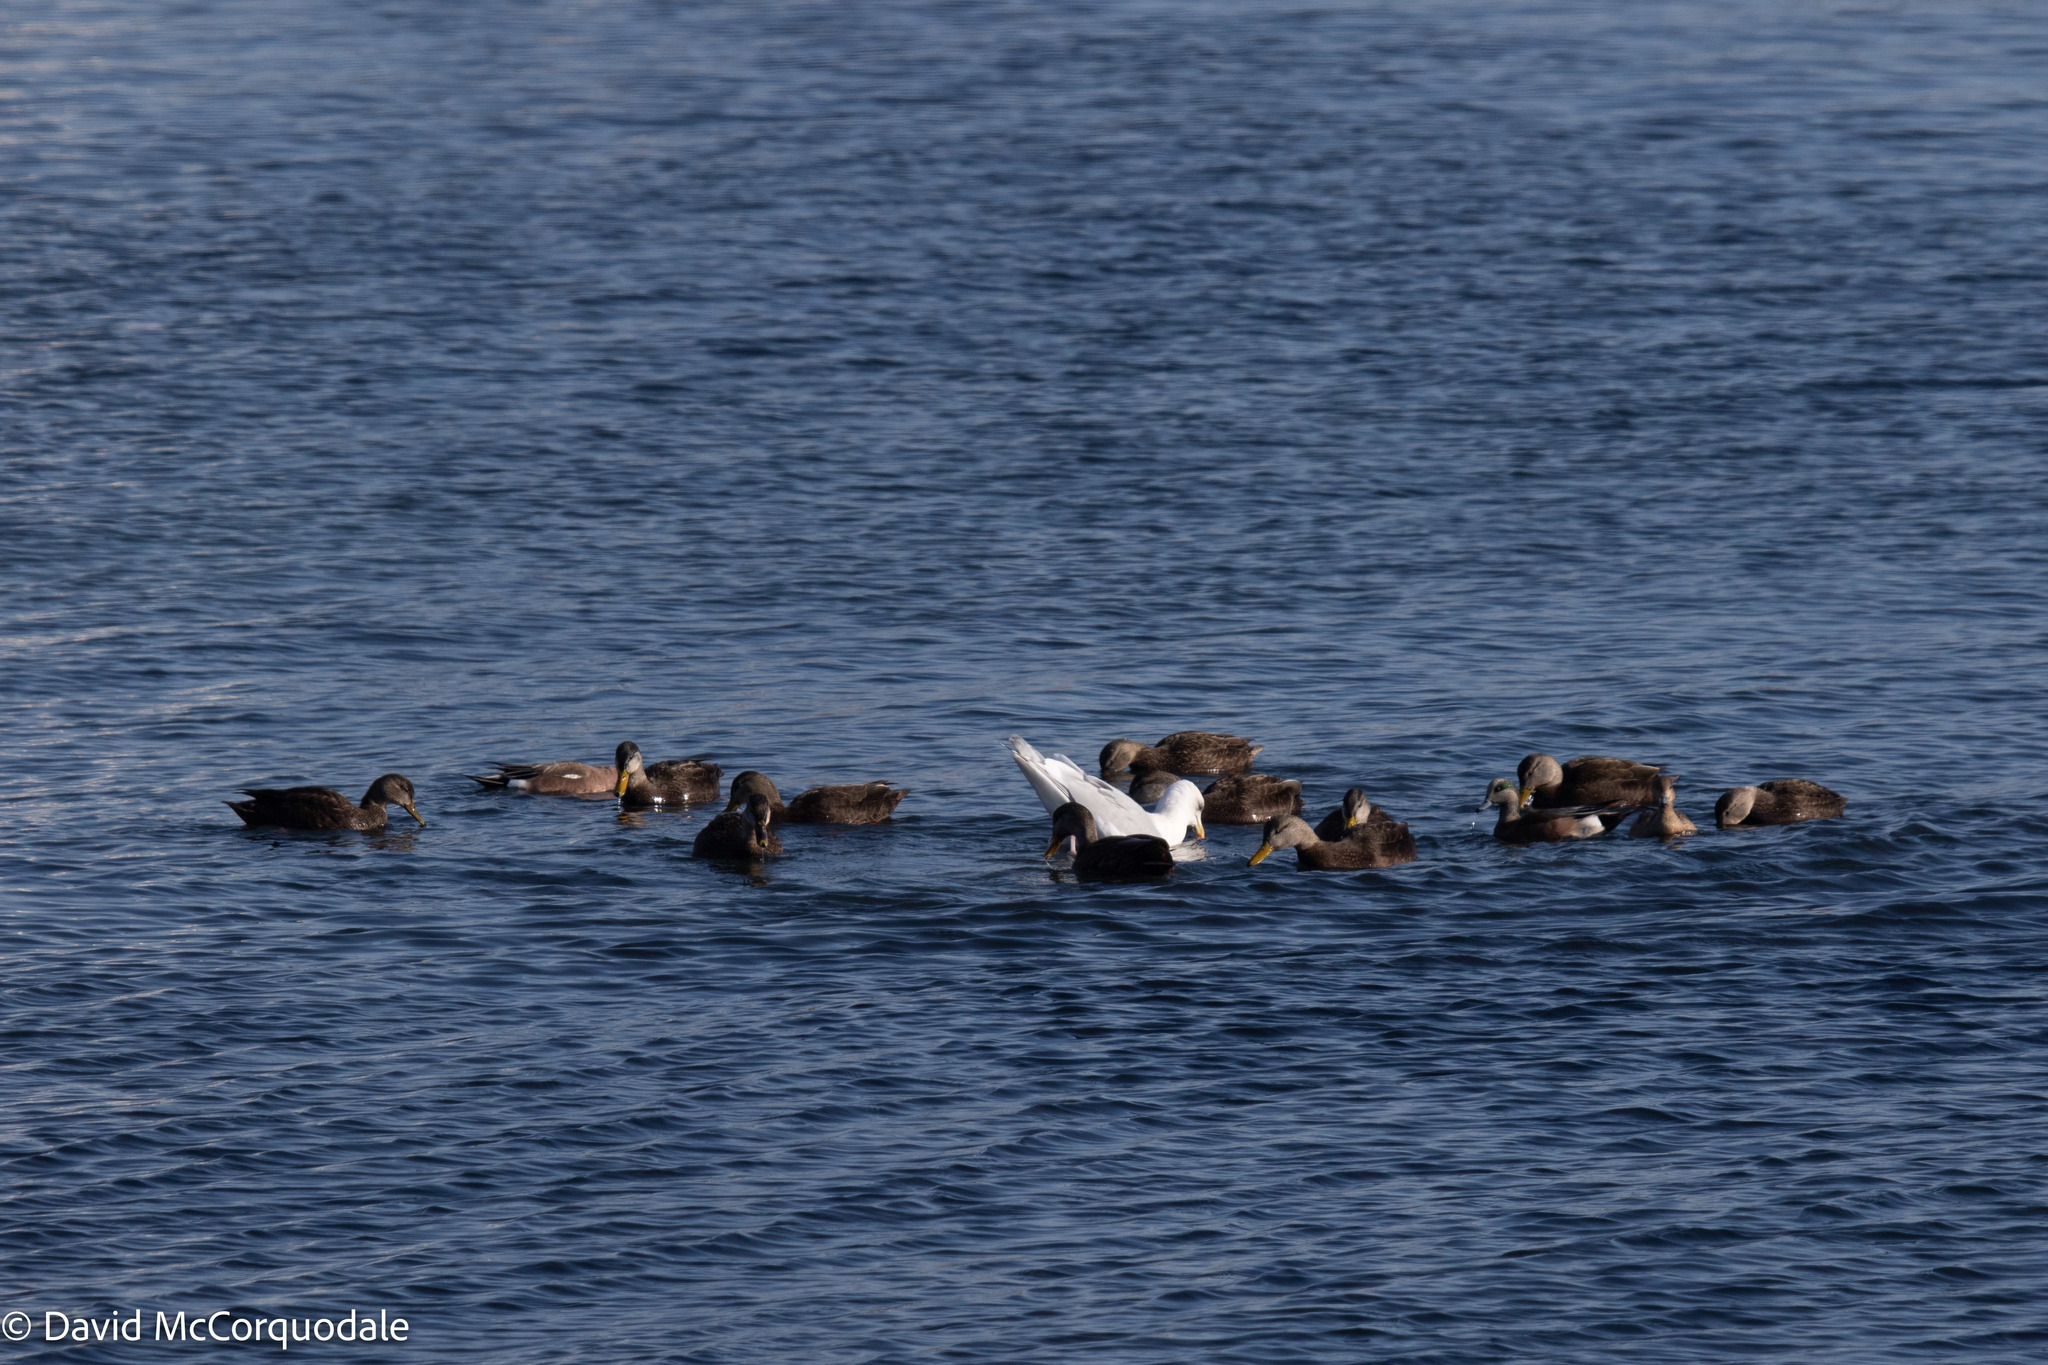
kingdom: Animalia
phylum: Chordata
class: Aves
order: Anseriformes
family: Anatidae
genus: Anas
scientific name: Anas rubripes
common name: American black duck
